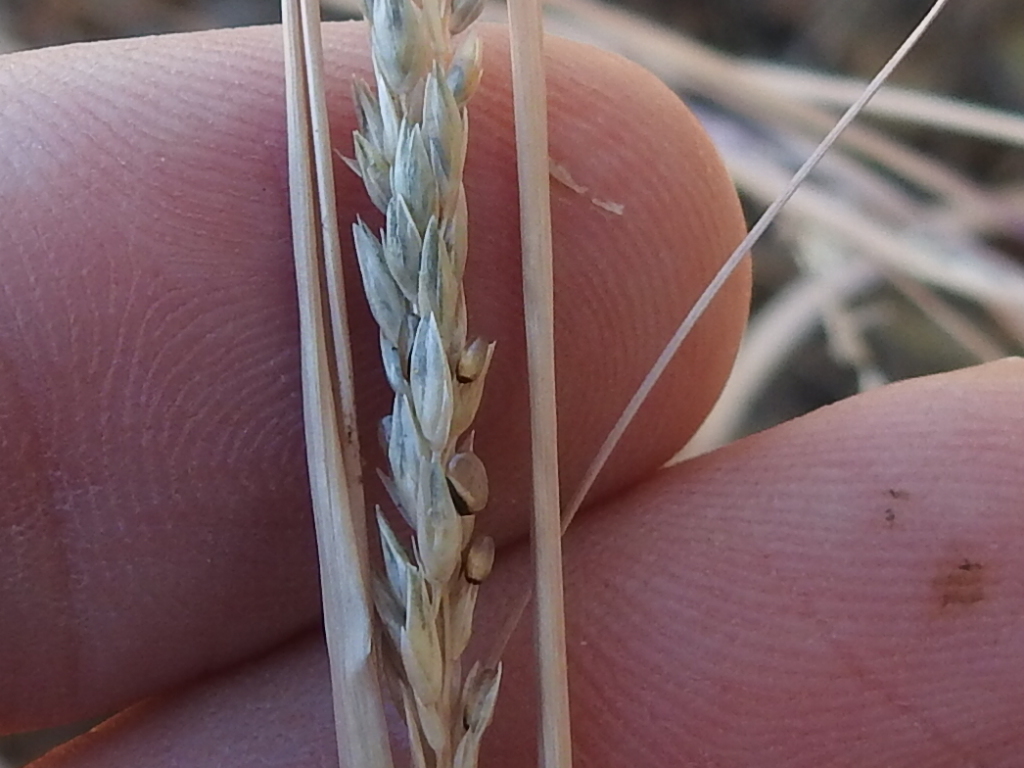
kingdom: Plantae
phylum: Tracheophyta
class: Liliopsida
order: Poales
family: Poaceae
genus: Sporobolus
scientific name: Sporobolus clandestinus
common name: Hidden dropseed
